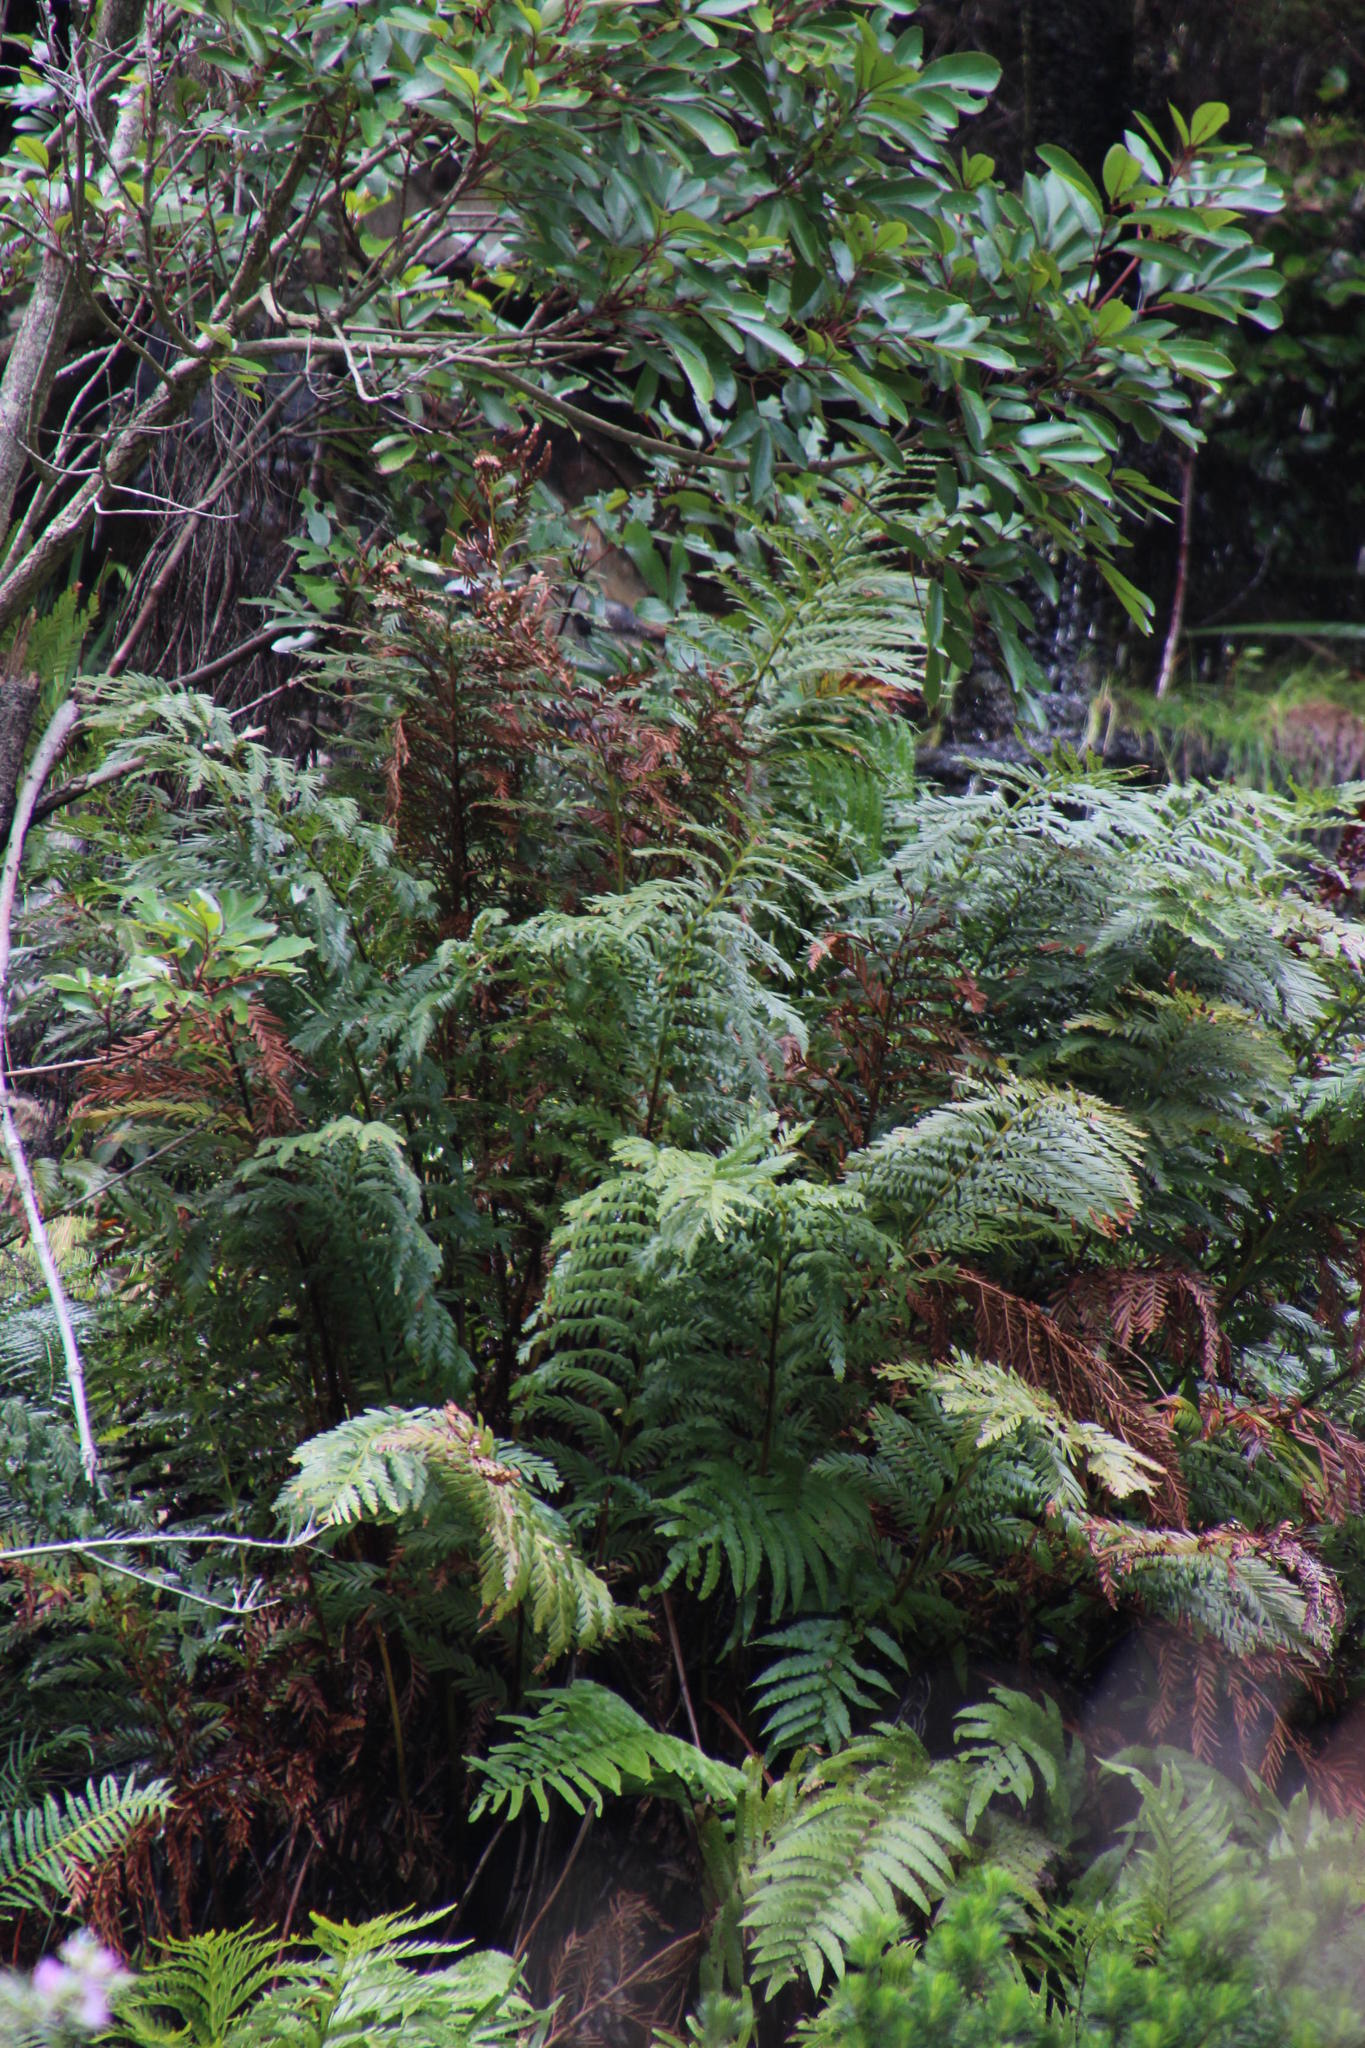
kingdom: Plantae
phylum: Tracheophyta
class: Polypodiopsida
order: Osmundales
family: Osmundaceae
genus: Todea
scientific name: Todea barbara
